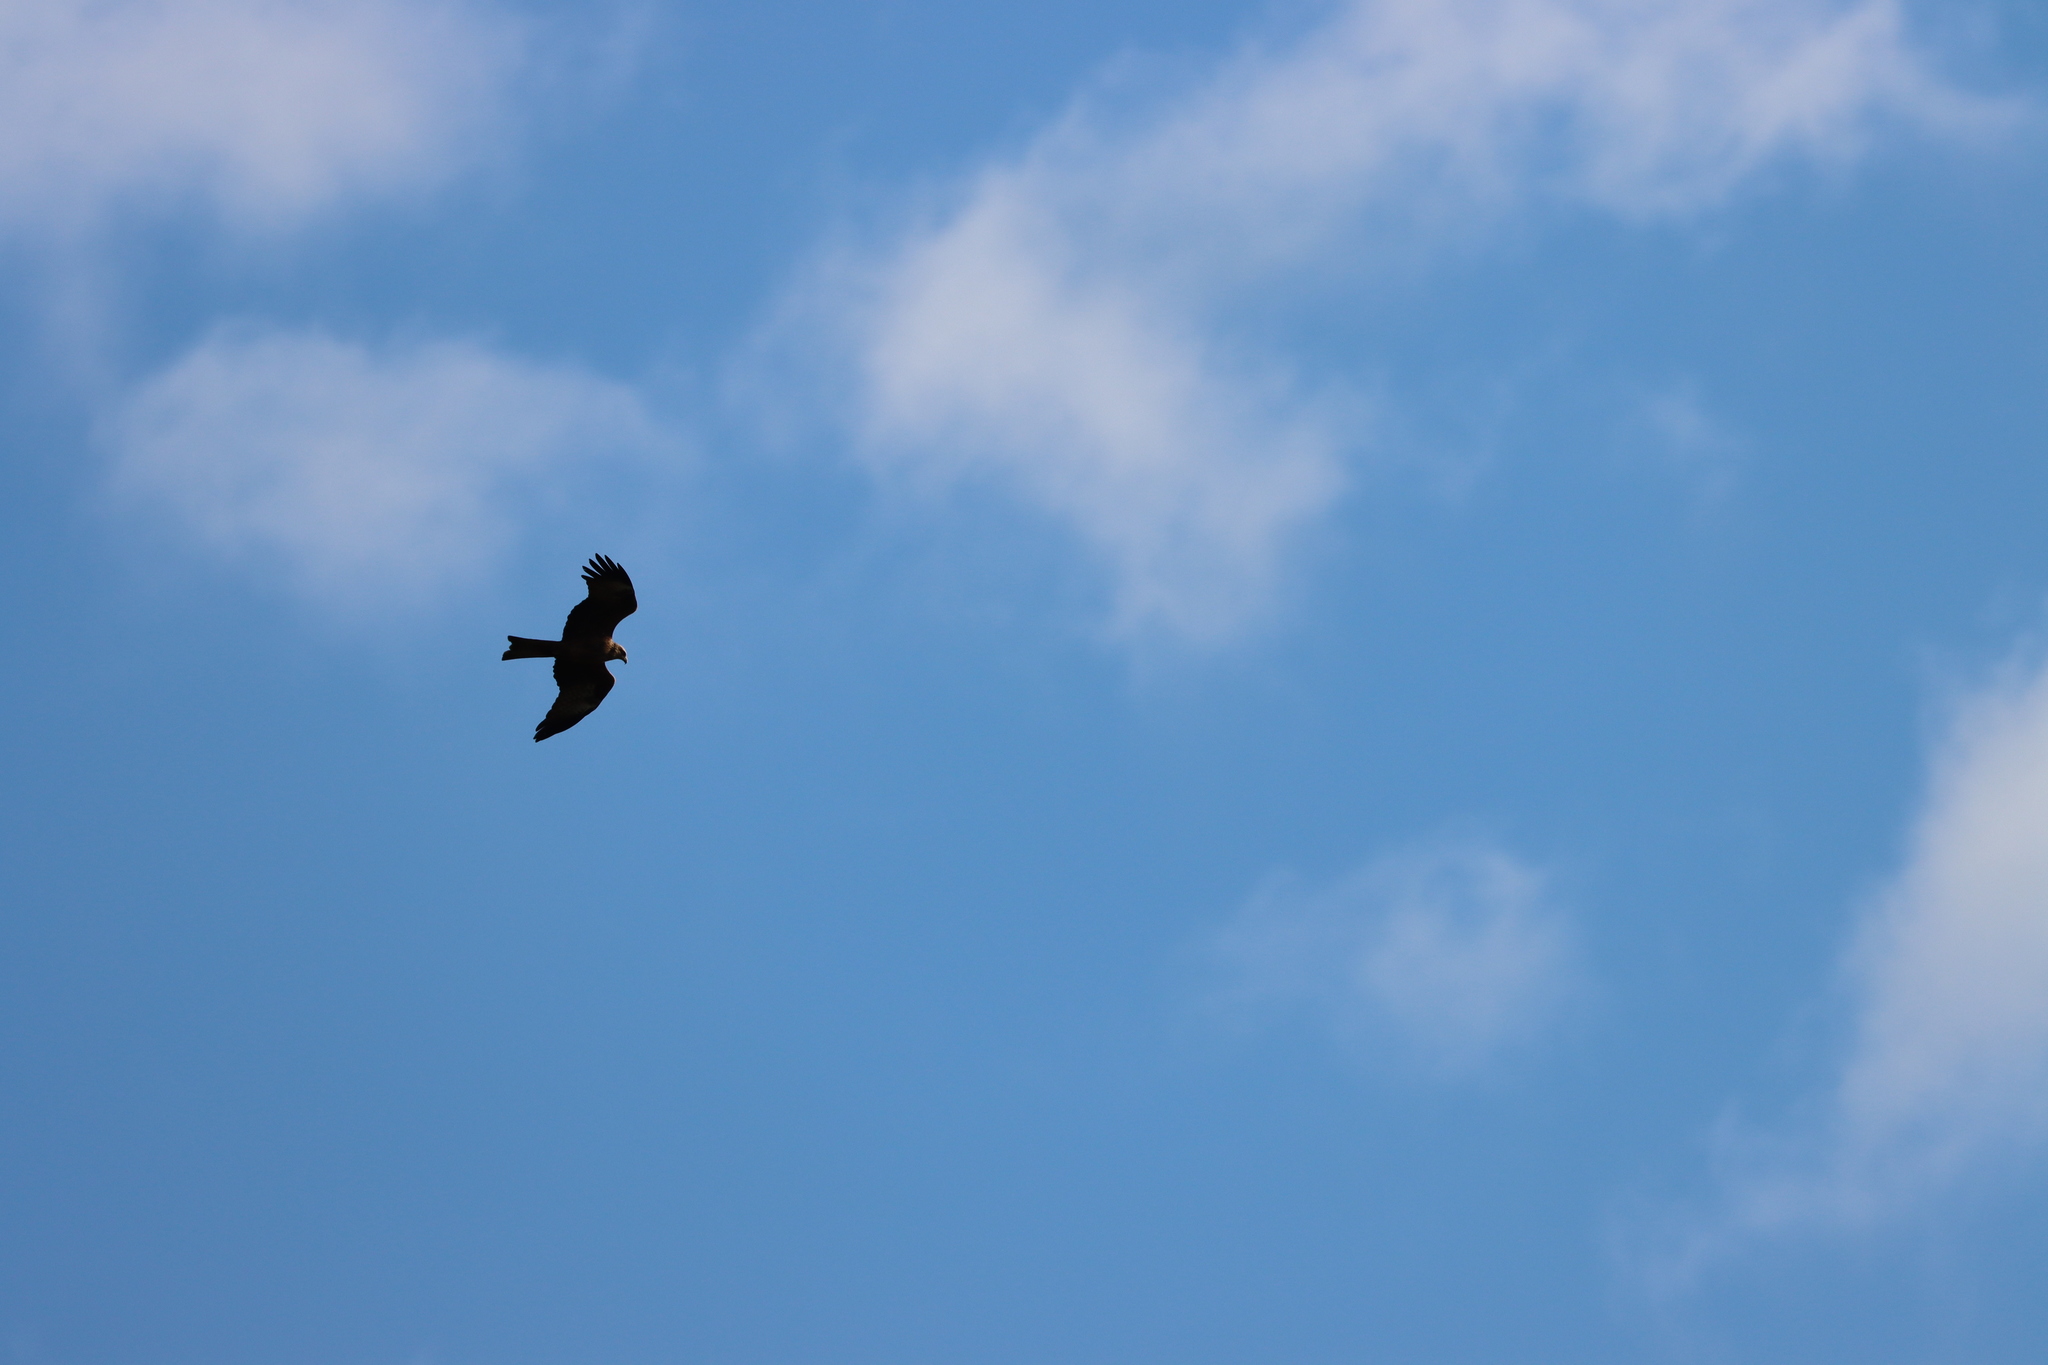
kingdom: Animalia
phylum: Chordata
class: Aves
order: Accipitriformes
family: Accipitridae
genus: Milvus
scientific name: Milvus migrans
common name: Black kite
